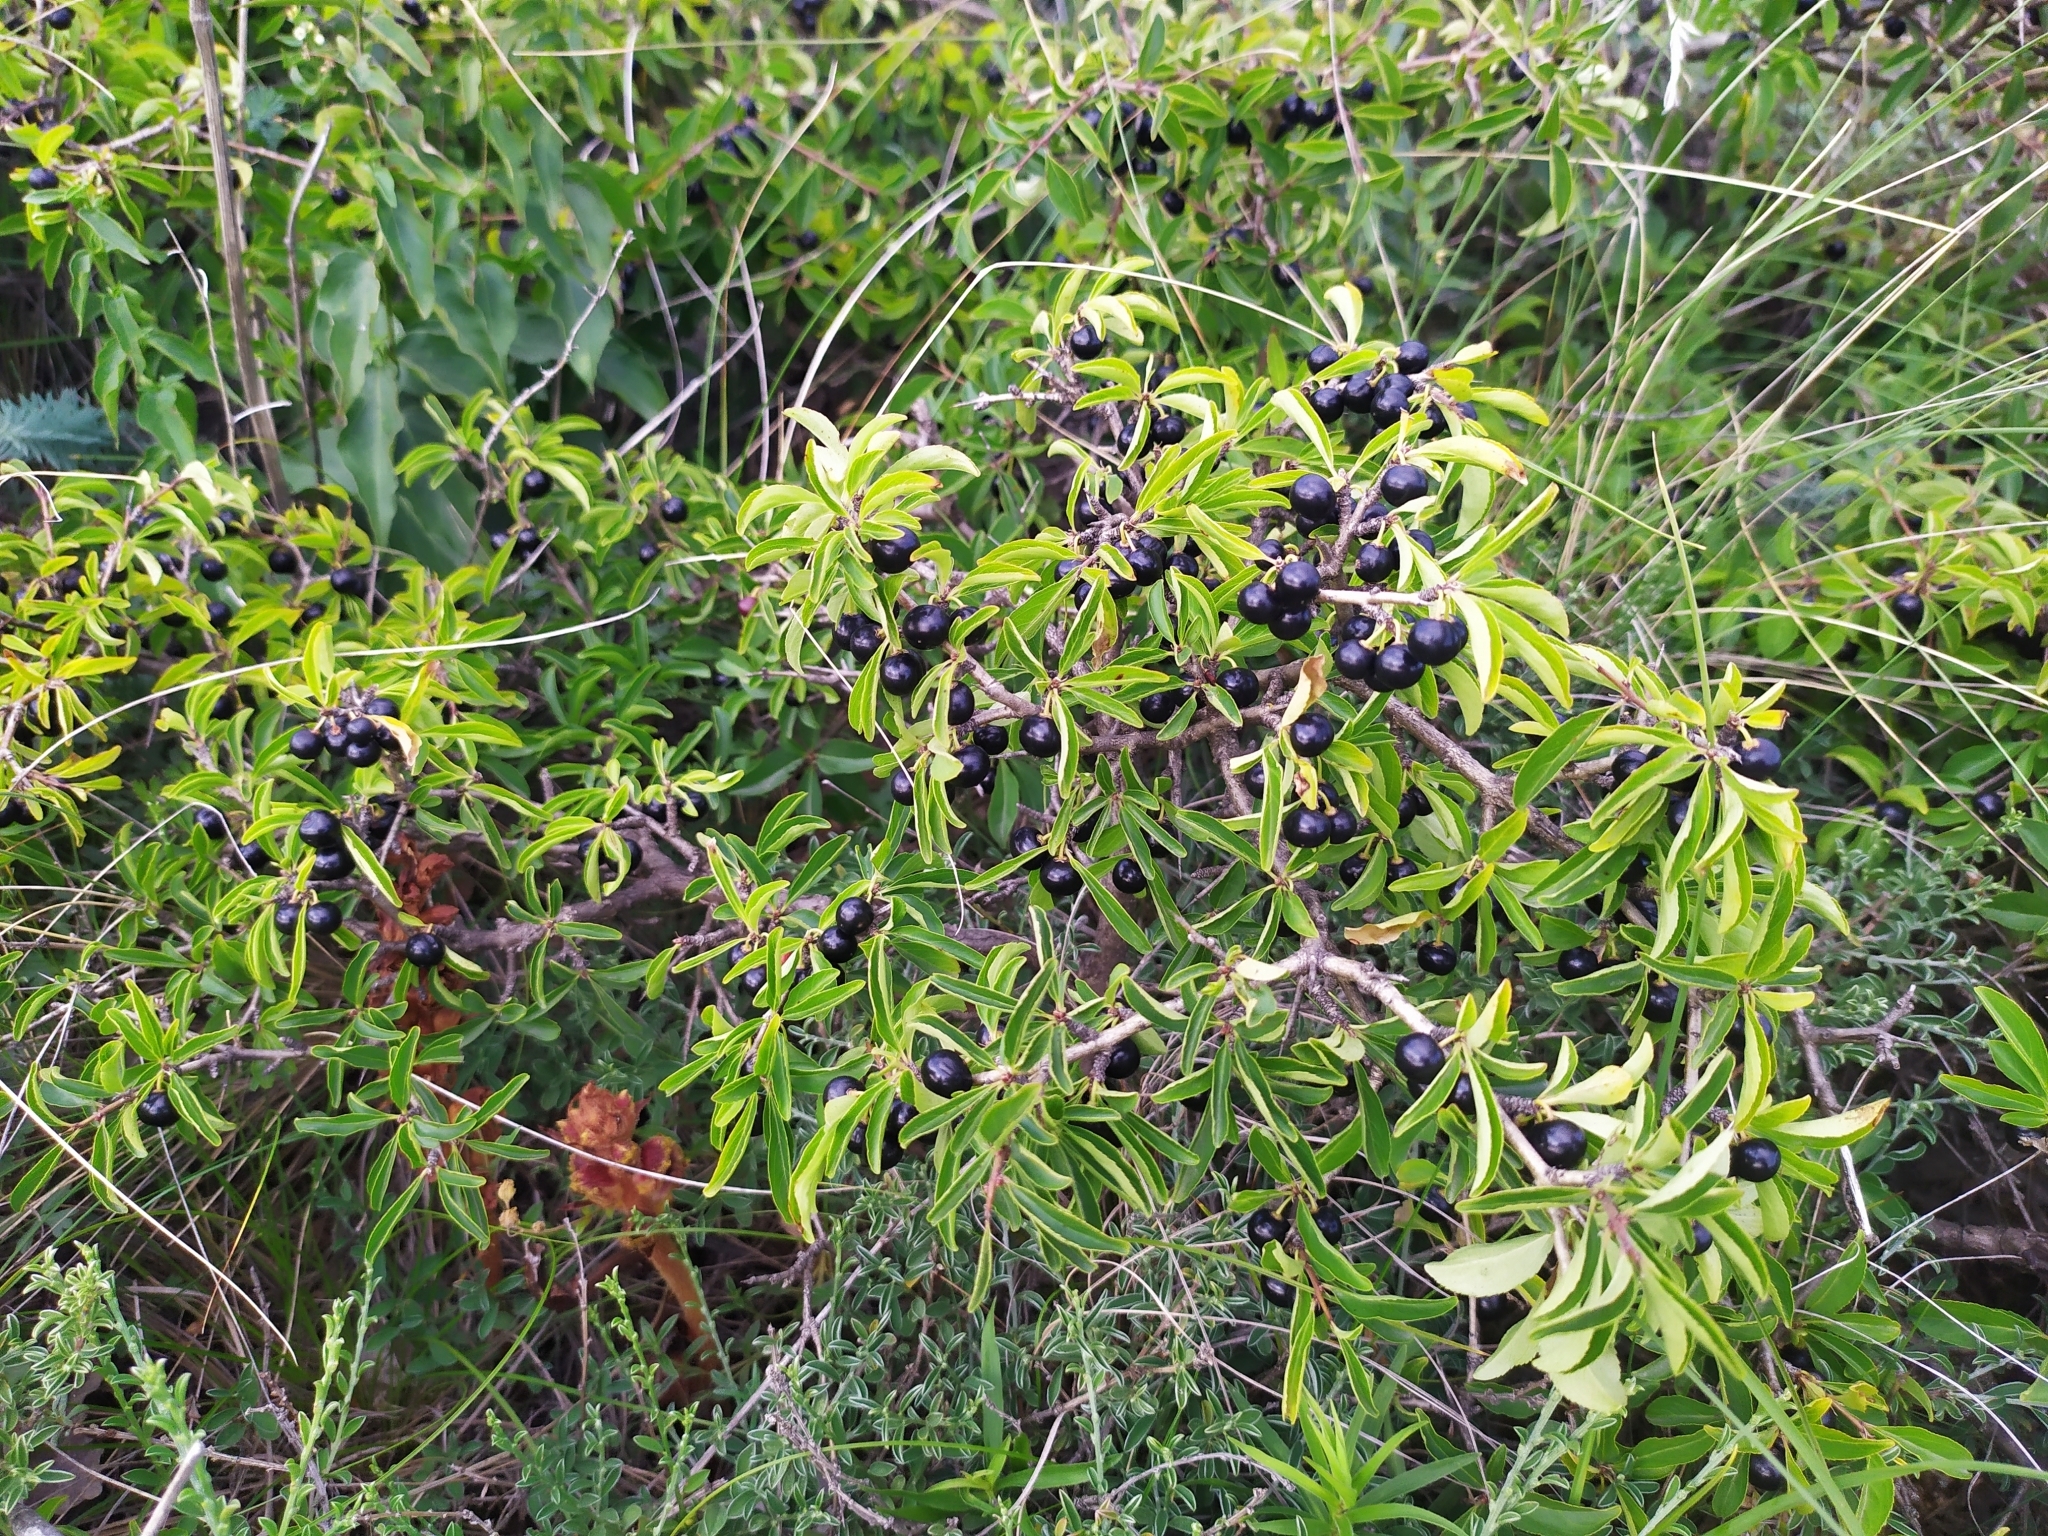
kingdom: Plantae
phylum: Tracheophyta
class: Magnoliopsida
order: Rosales
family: Rhamnaceae
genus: Rhamnus
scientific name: Rhamnus saxatilis
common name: Rock buckthorn
